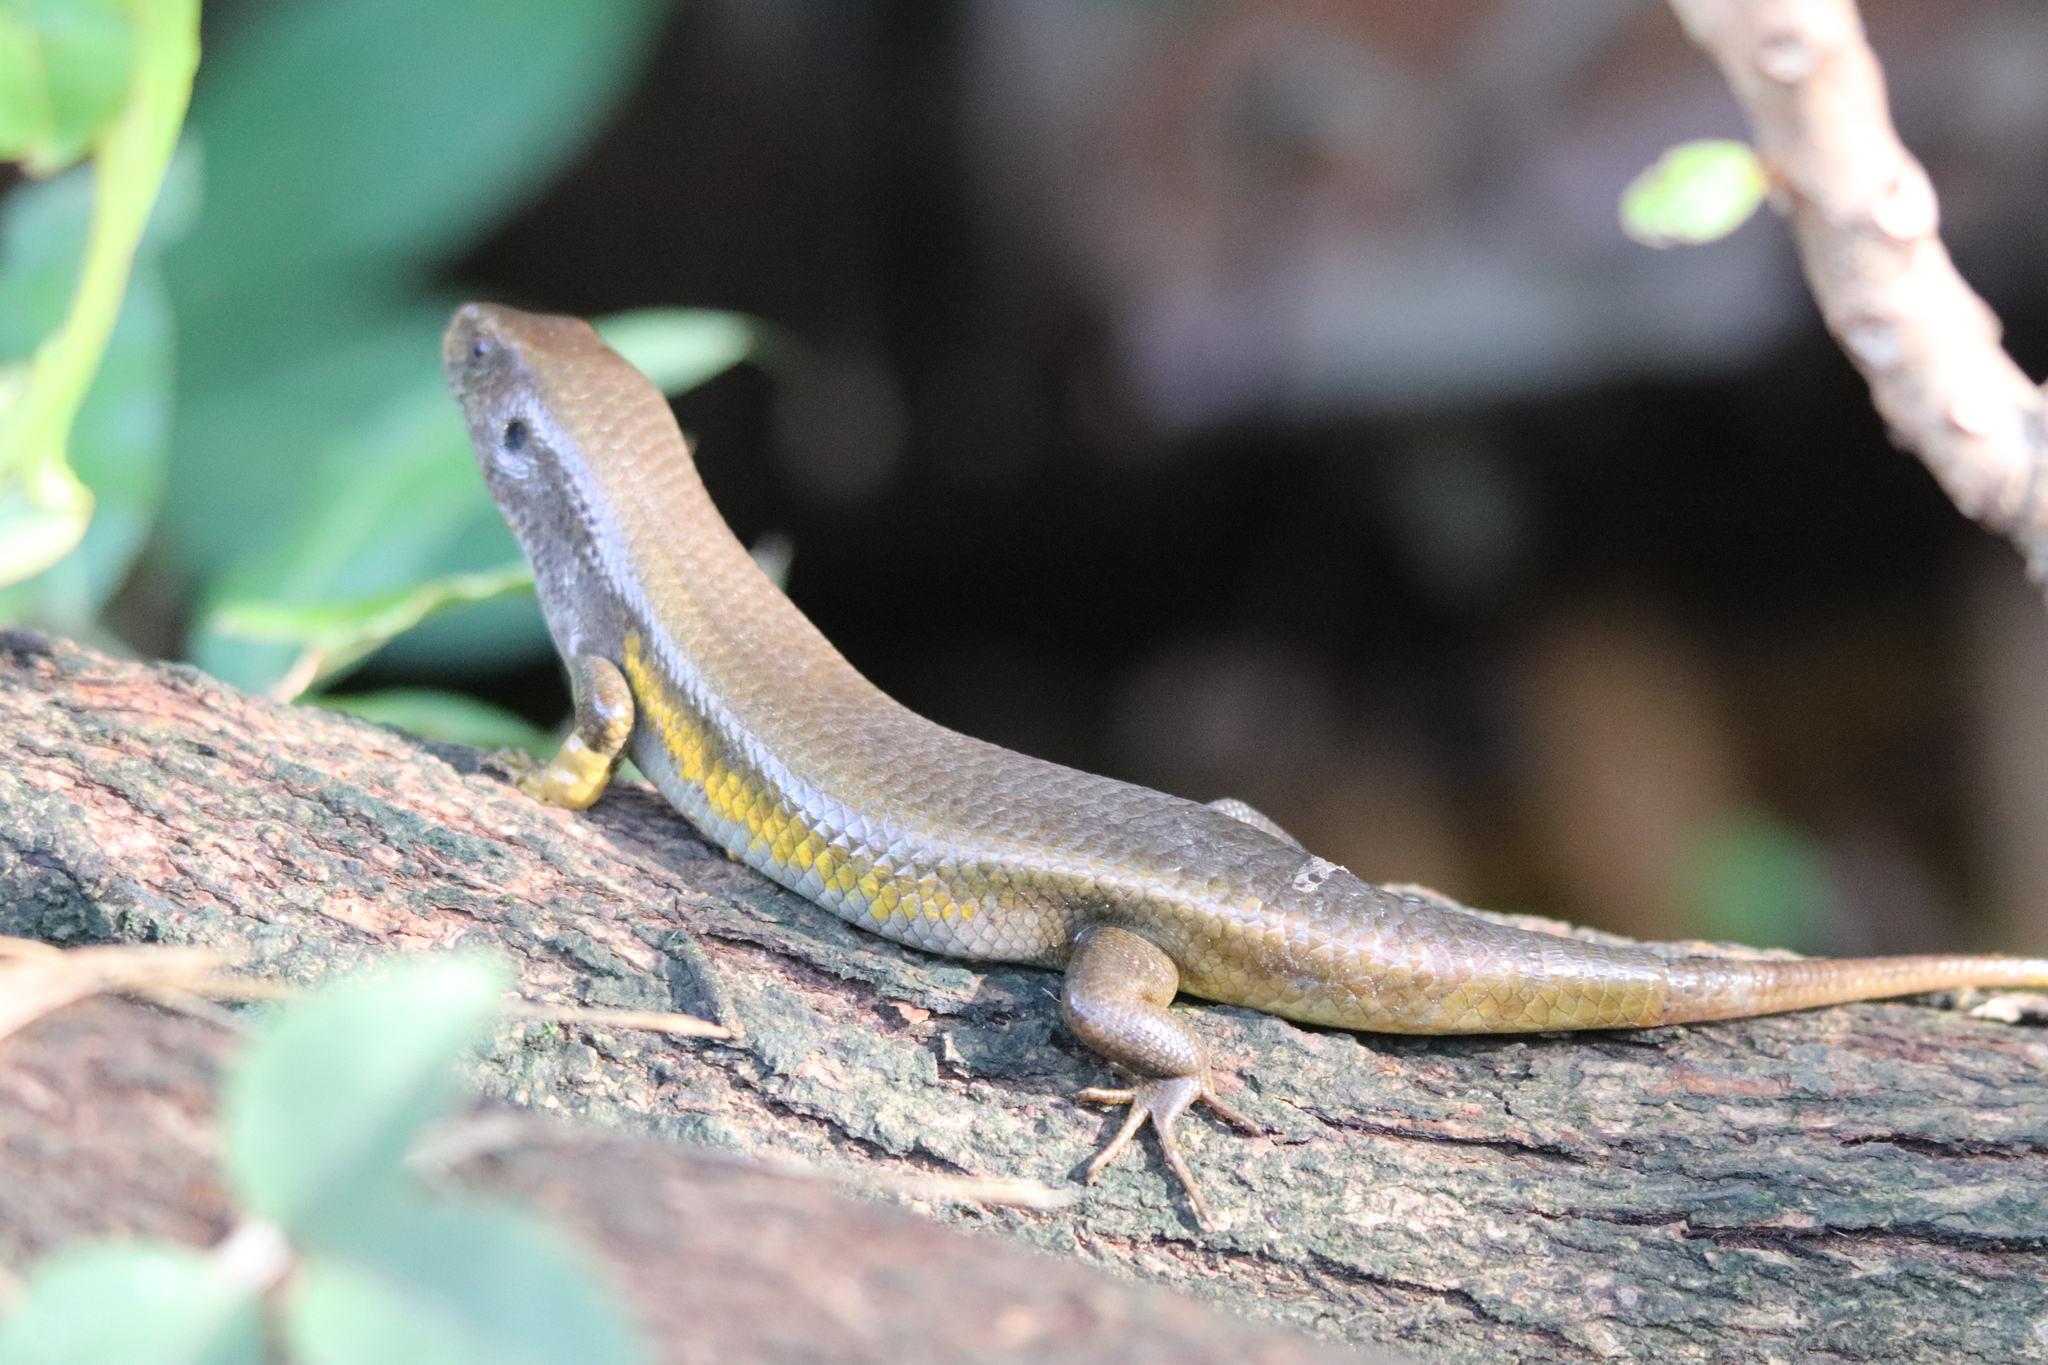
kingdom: Animalia
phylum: Chordata
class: Squamata
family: Scincidae
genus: Eutropis
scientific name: Eutropis multifasciata
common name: Common mabuya
